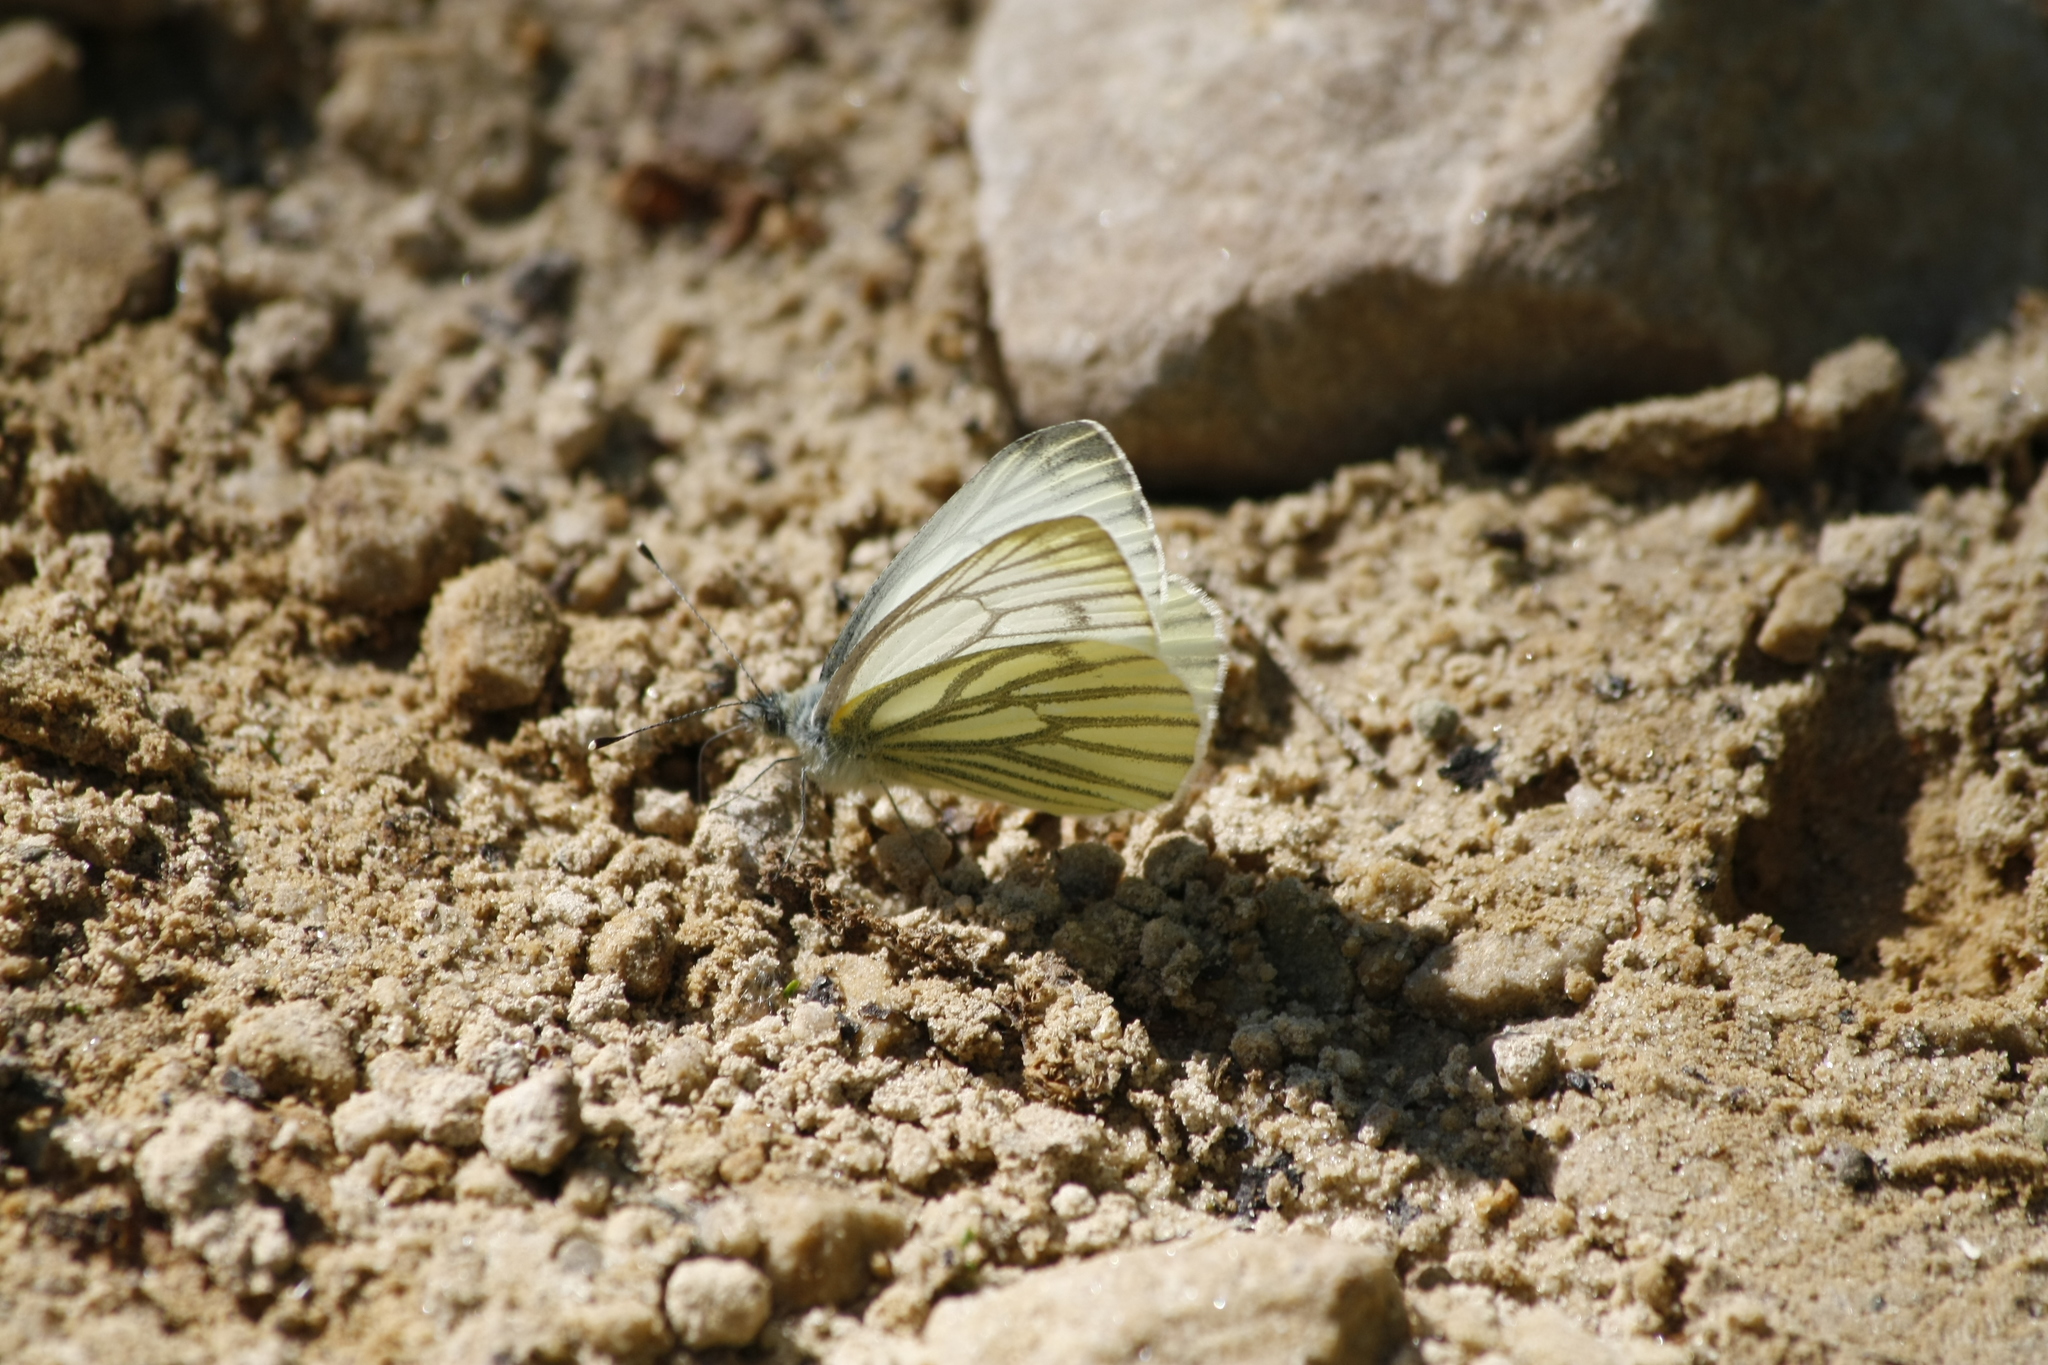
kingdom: Animalia
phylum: Arthropoda
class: Insecta
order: Lepidoptera
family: Pieridae
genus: Pieris
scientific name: Pieris napi
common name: Green-veined white
